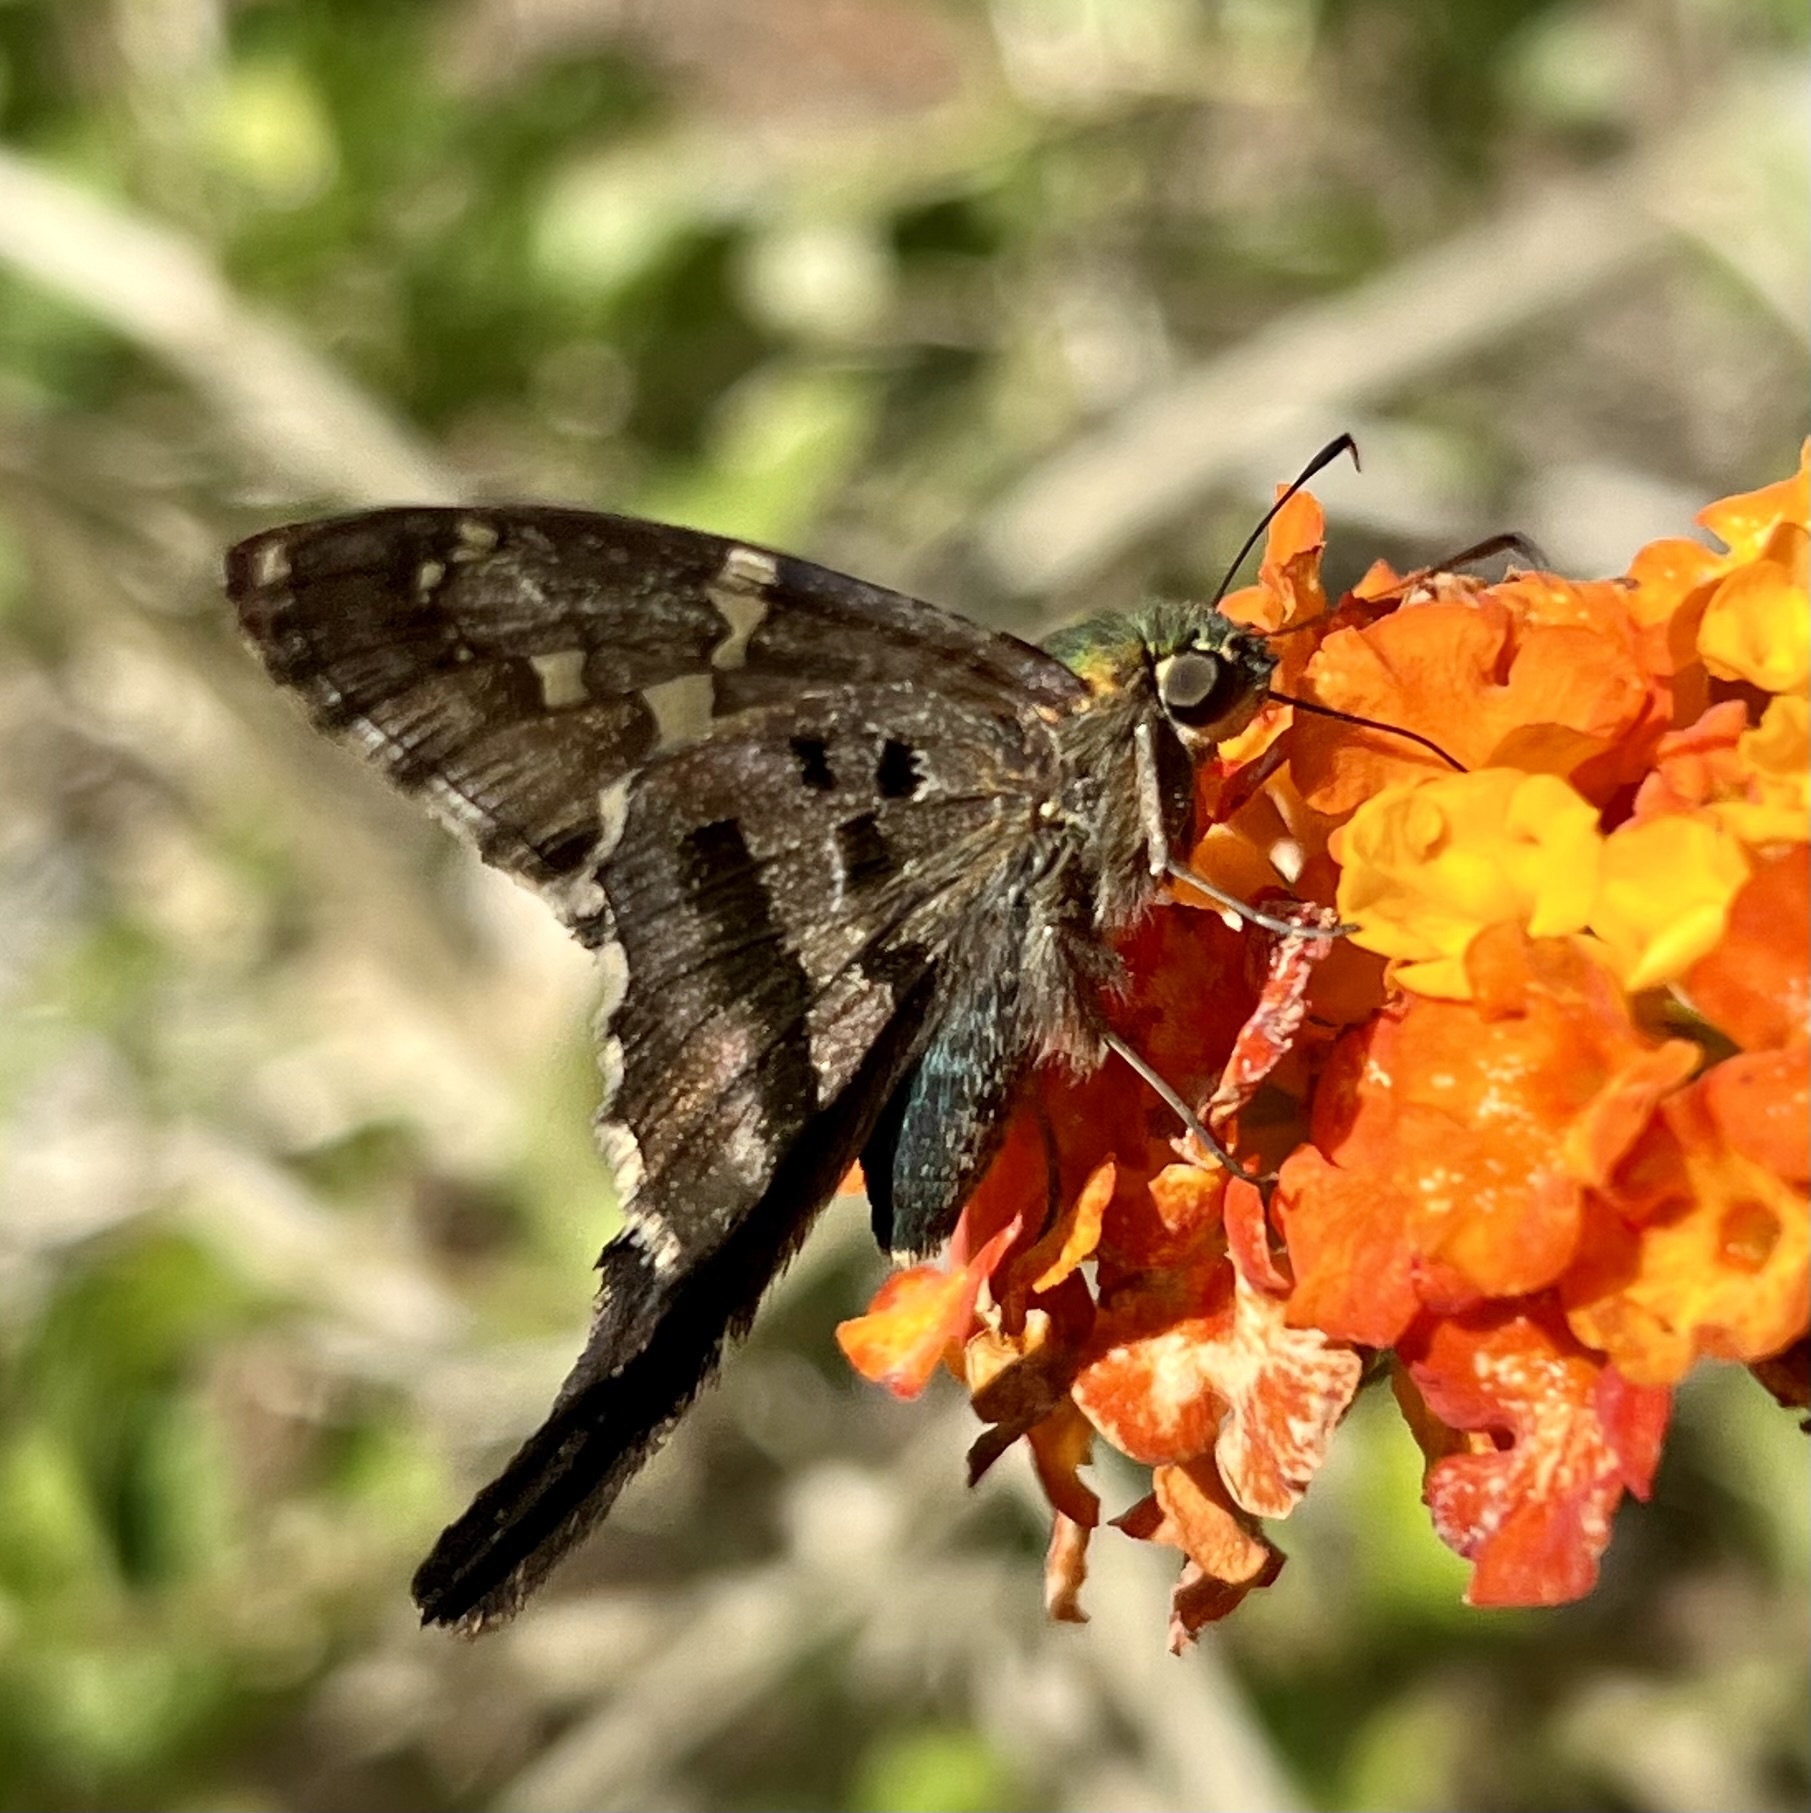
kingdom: Animalia
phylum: Arthropoda
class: Insecta
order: Lepidoptera
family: Hesperiidae
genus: Urbanus
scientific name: Urbanus proteus
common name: Long-tailed skipper
